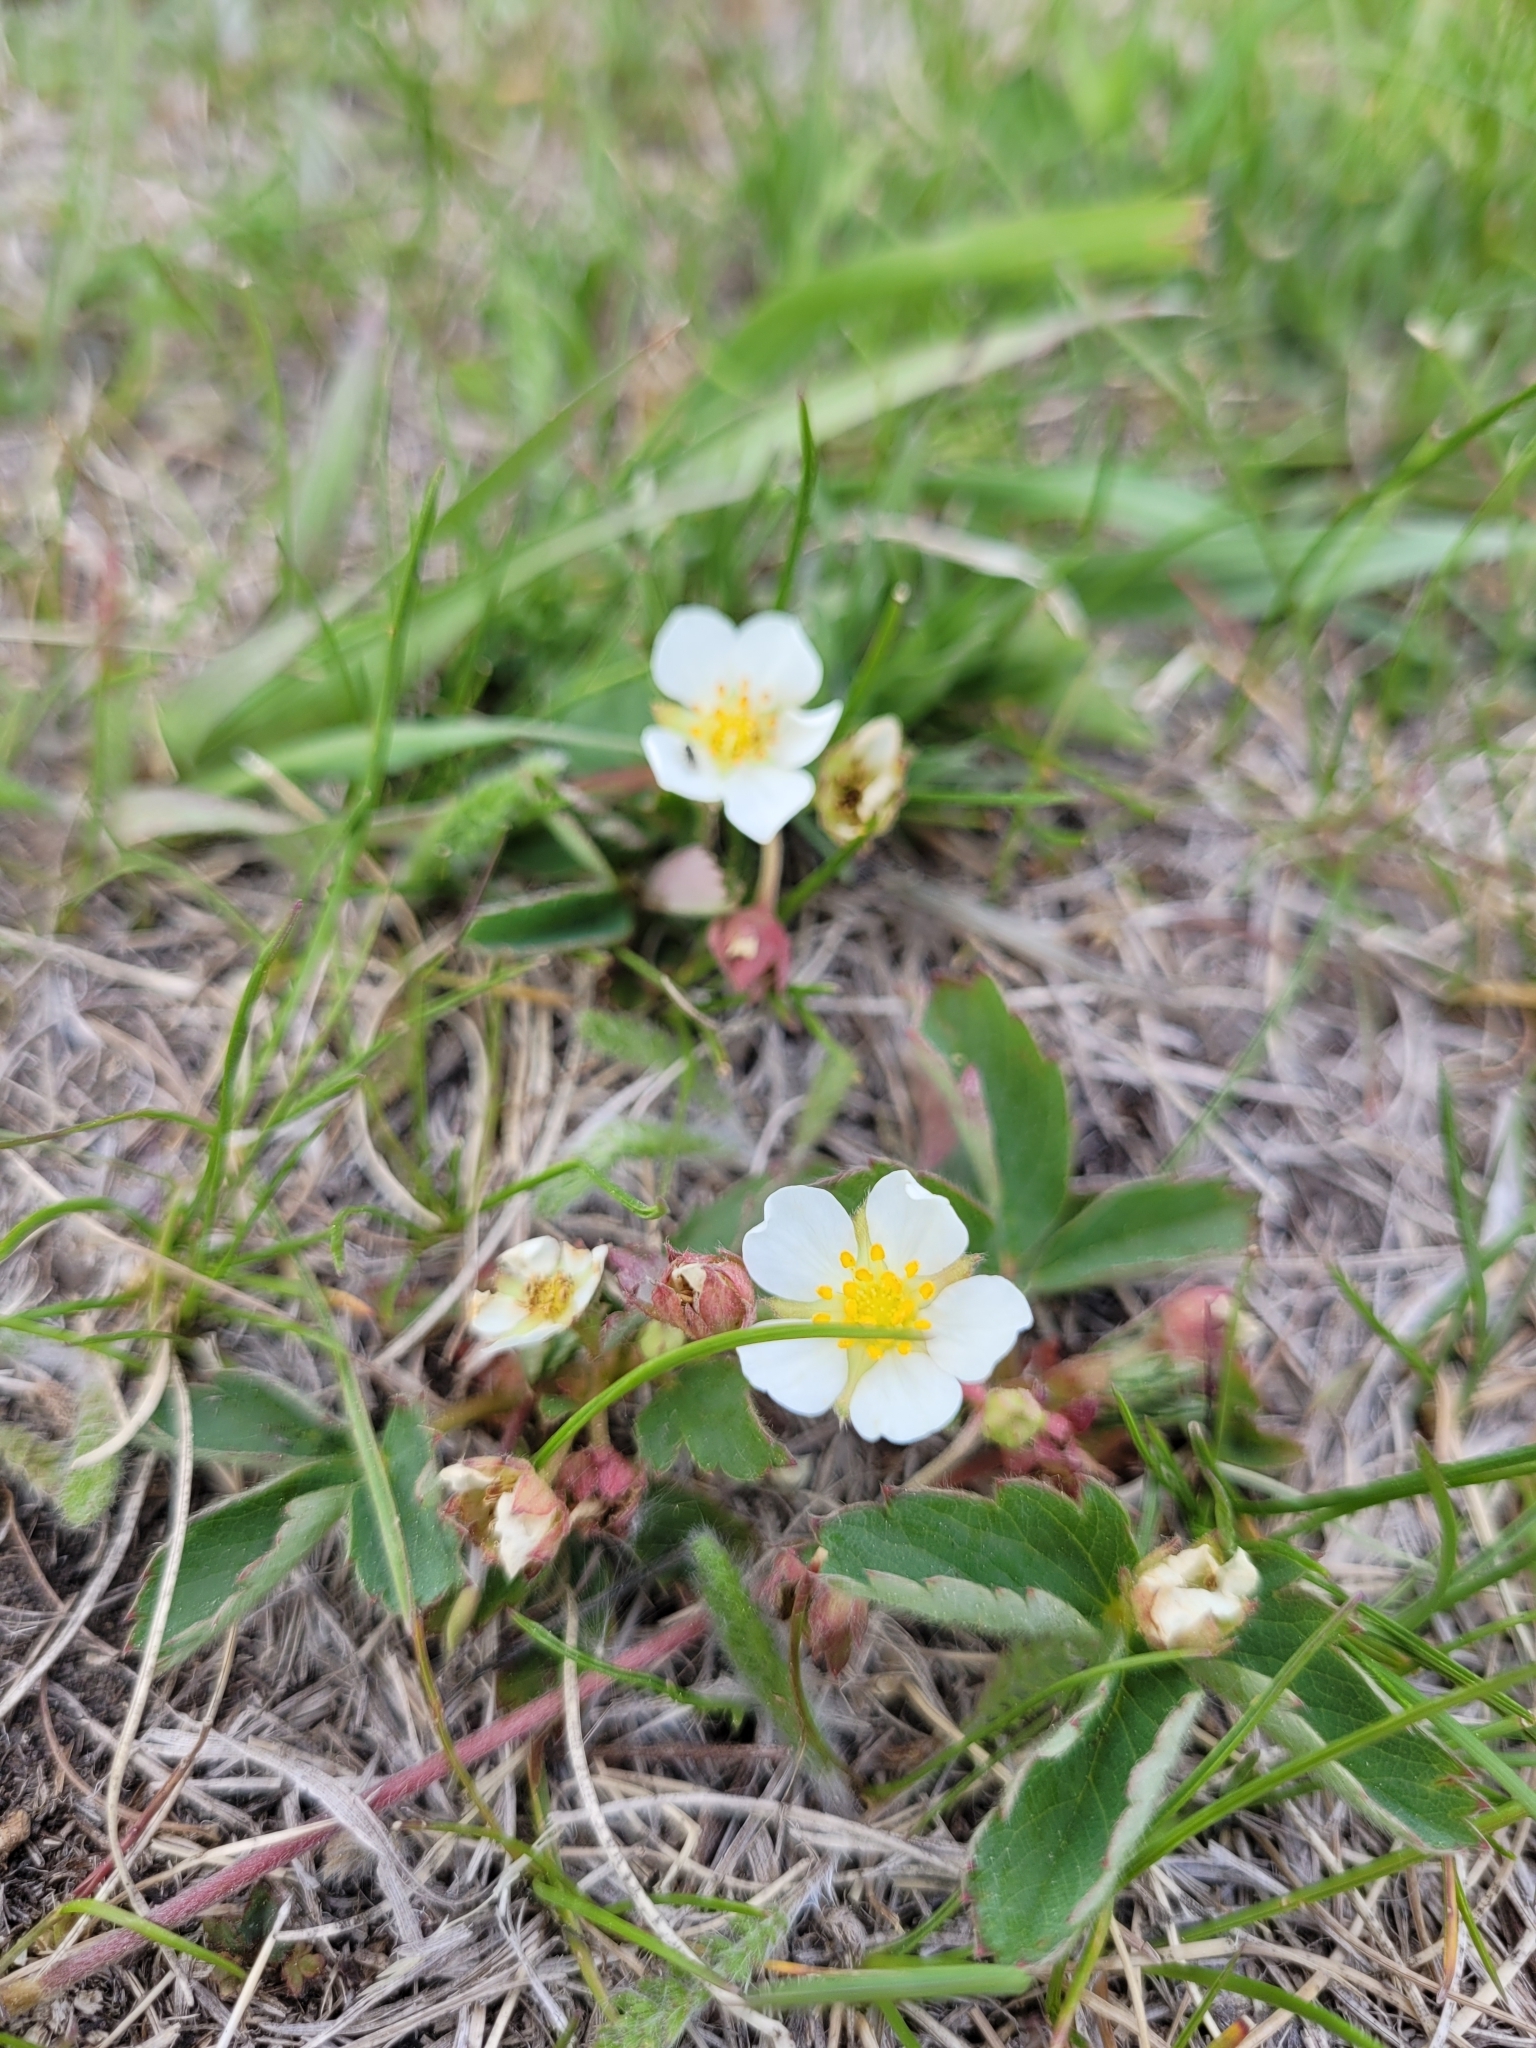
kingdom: Plantae
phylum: Tracheophyta
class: Magnoliopsida
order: Rosales
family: Rosaceae
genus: Fragaria
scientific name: Fragaria virginiana
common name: Thickleaved wild strawberry
